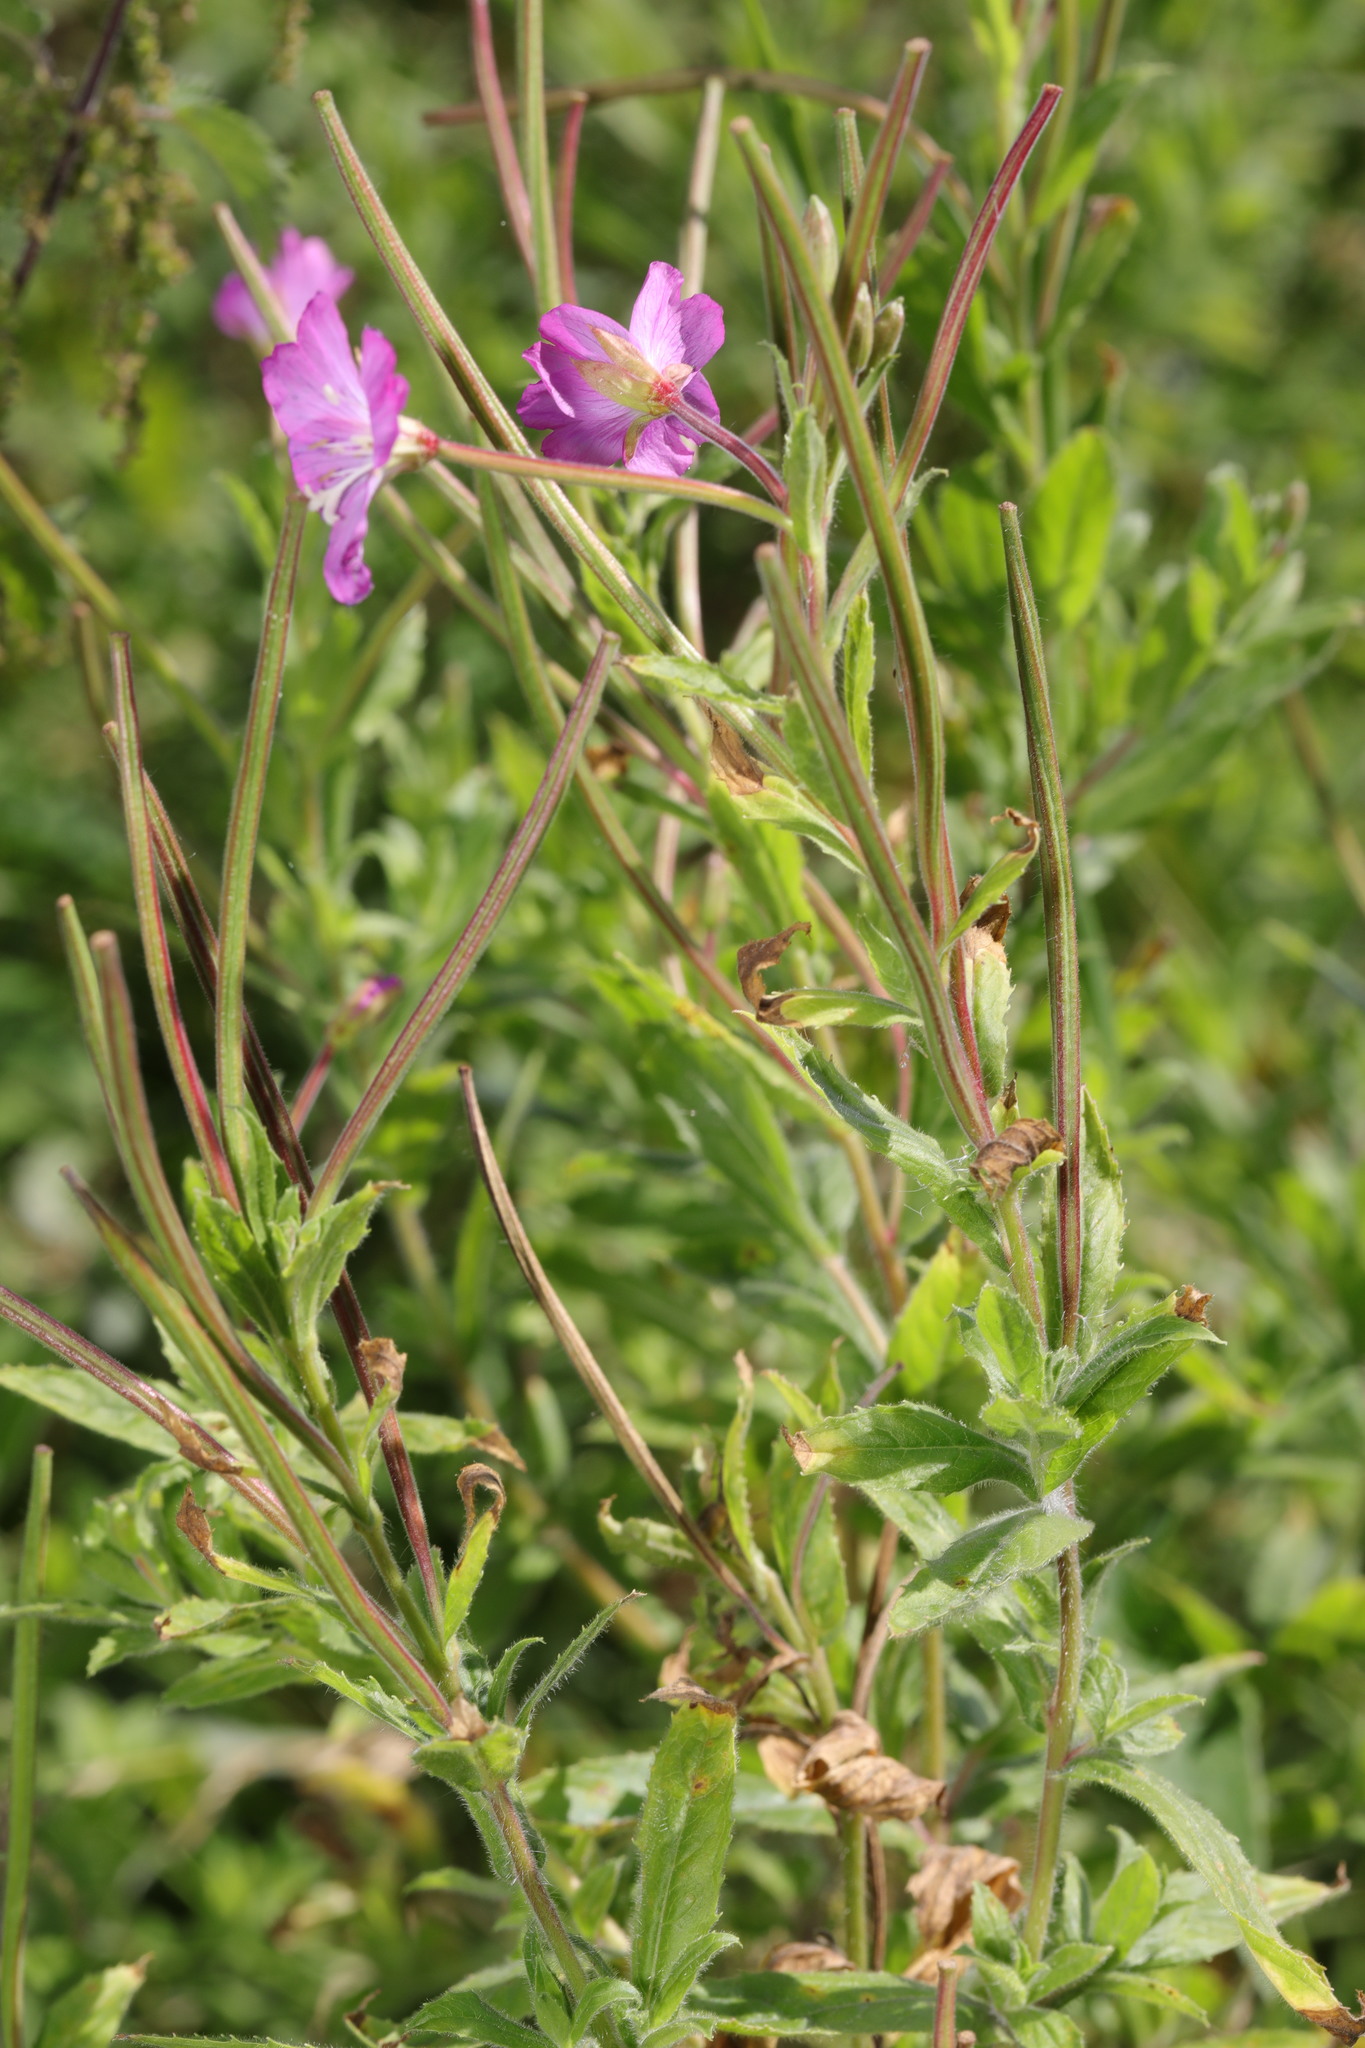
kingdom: Plantae
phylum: Tracheophyta
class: Magnoliopsida
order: Myrtales
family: Onagraceae
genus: Epilobium
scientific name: Epilobium hirsutum
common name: Great willowherb
